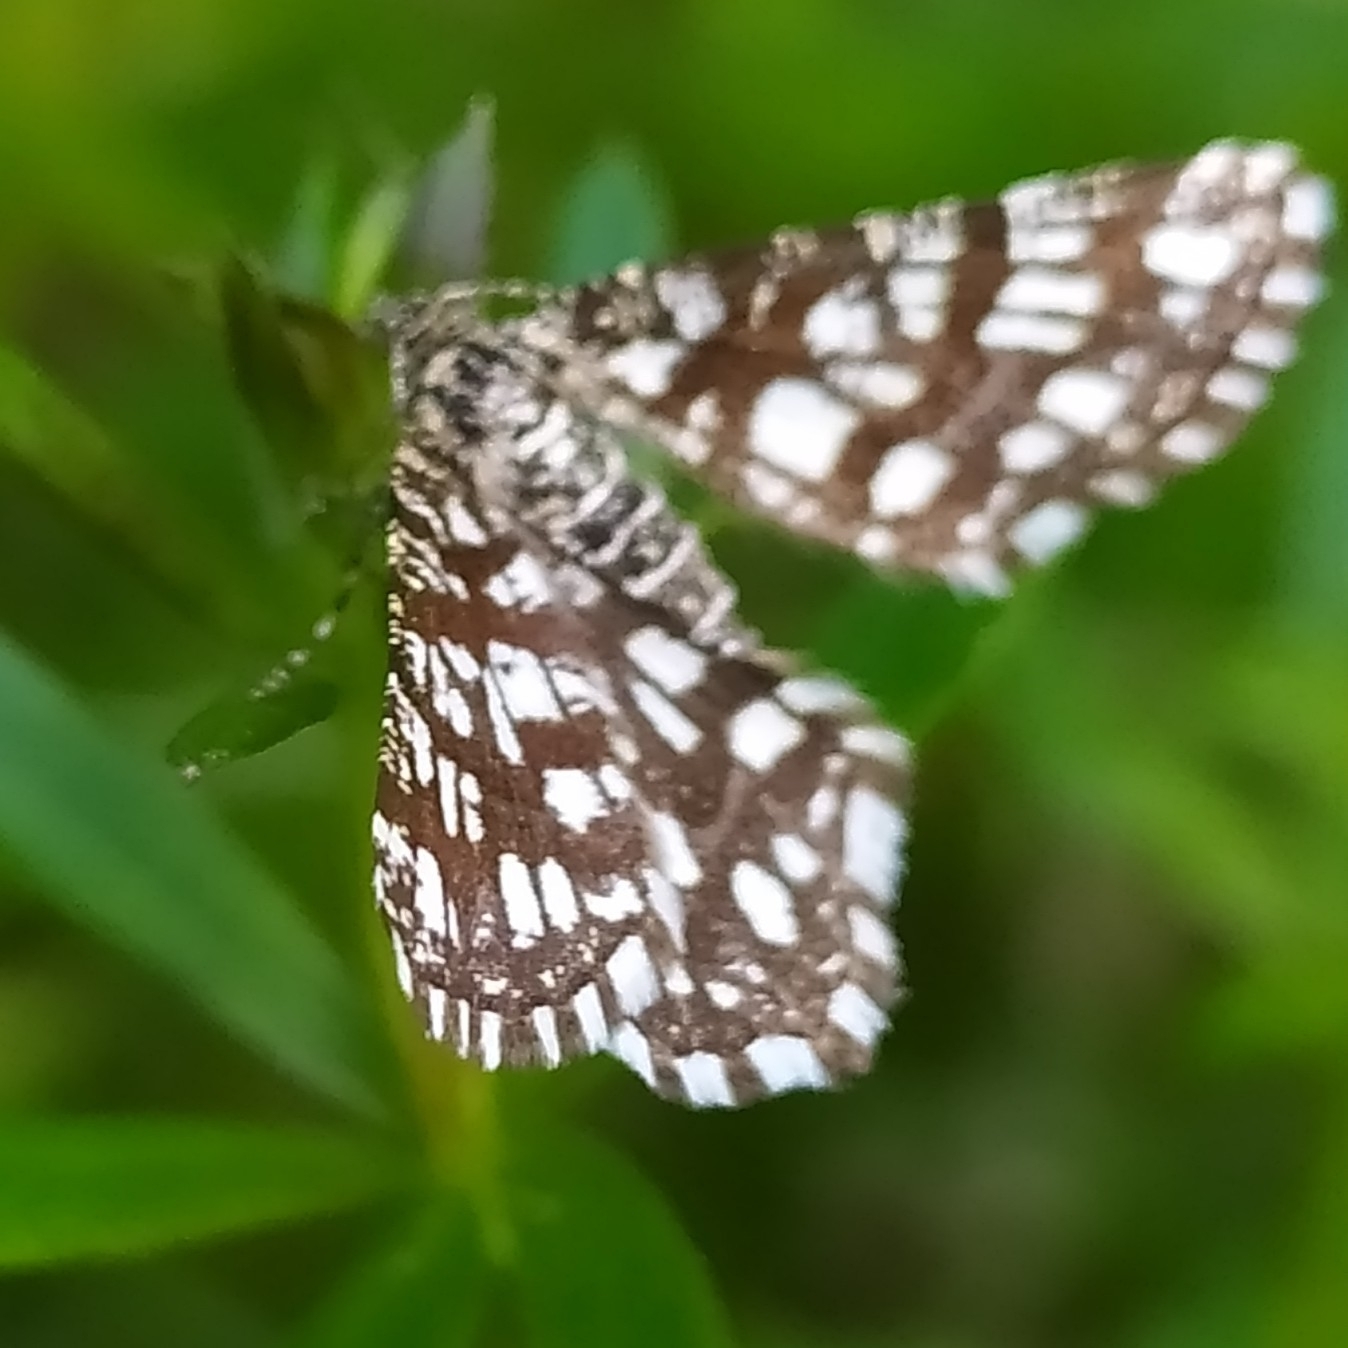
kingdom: Animalia
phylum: Arthropoda
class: Insecta
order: Lepidoptera
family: Geometridae
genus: Chiasmia
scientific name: Chiasmia clathrata
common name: Latticed heath
